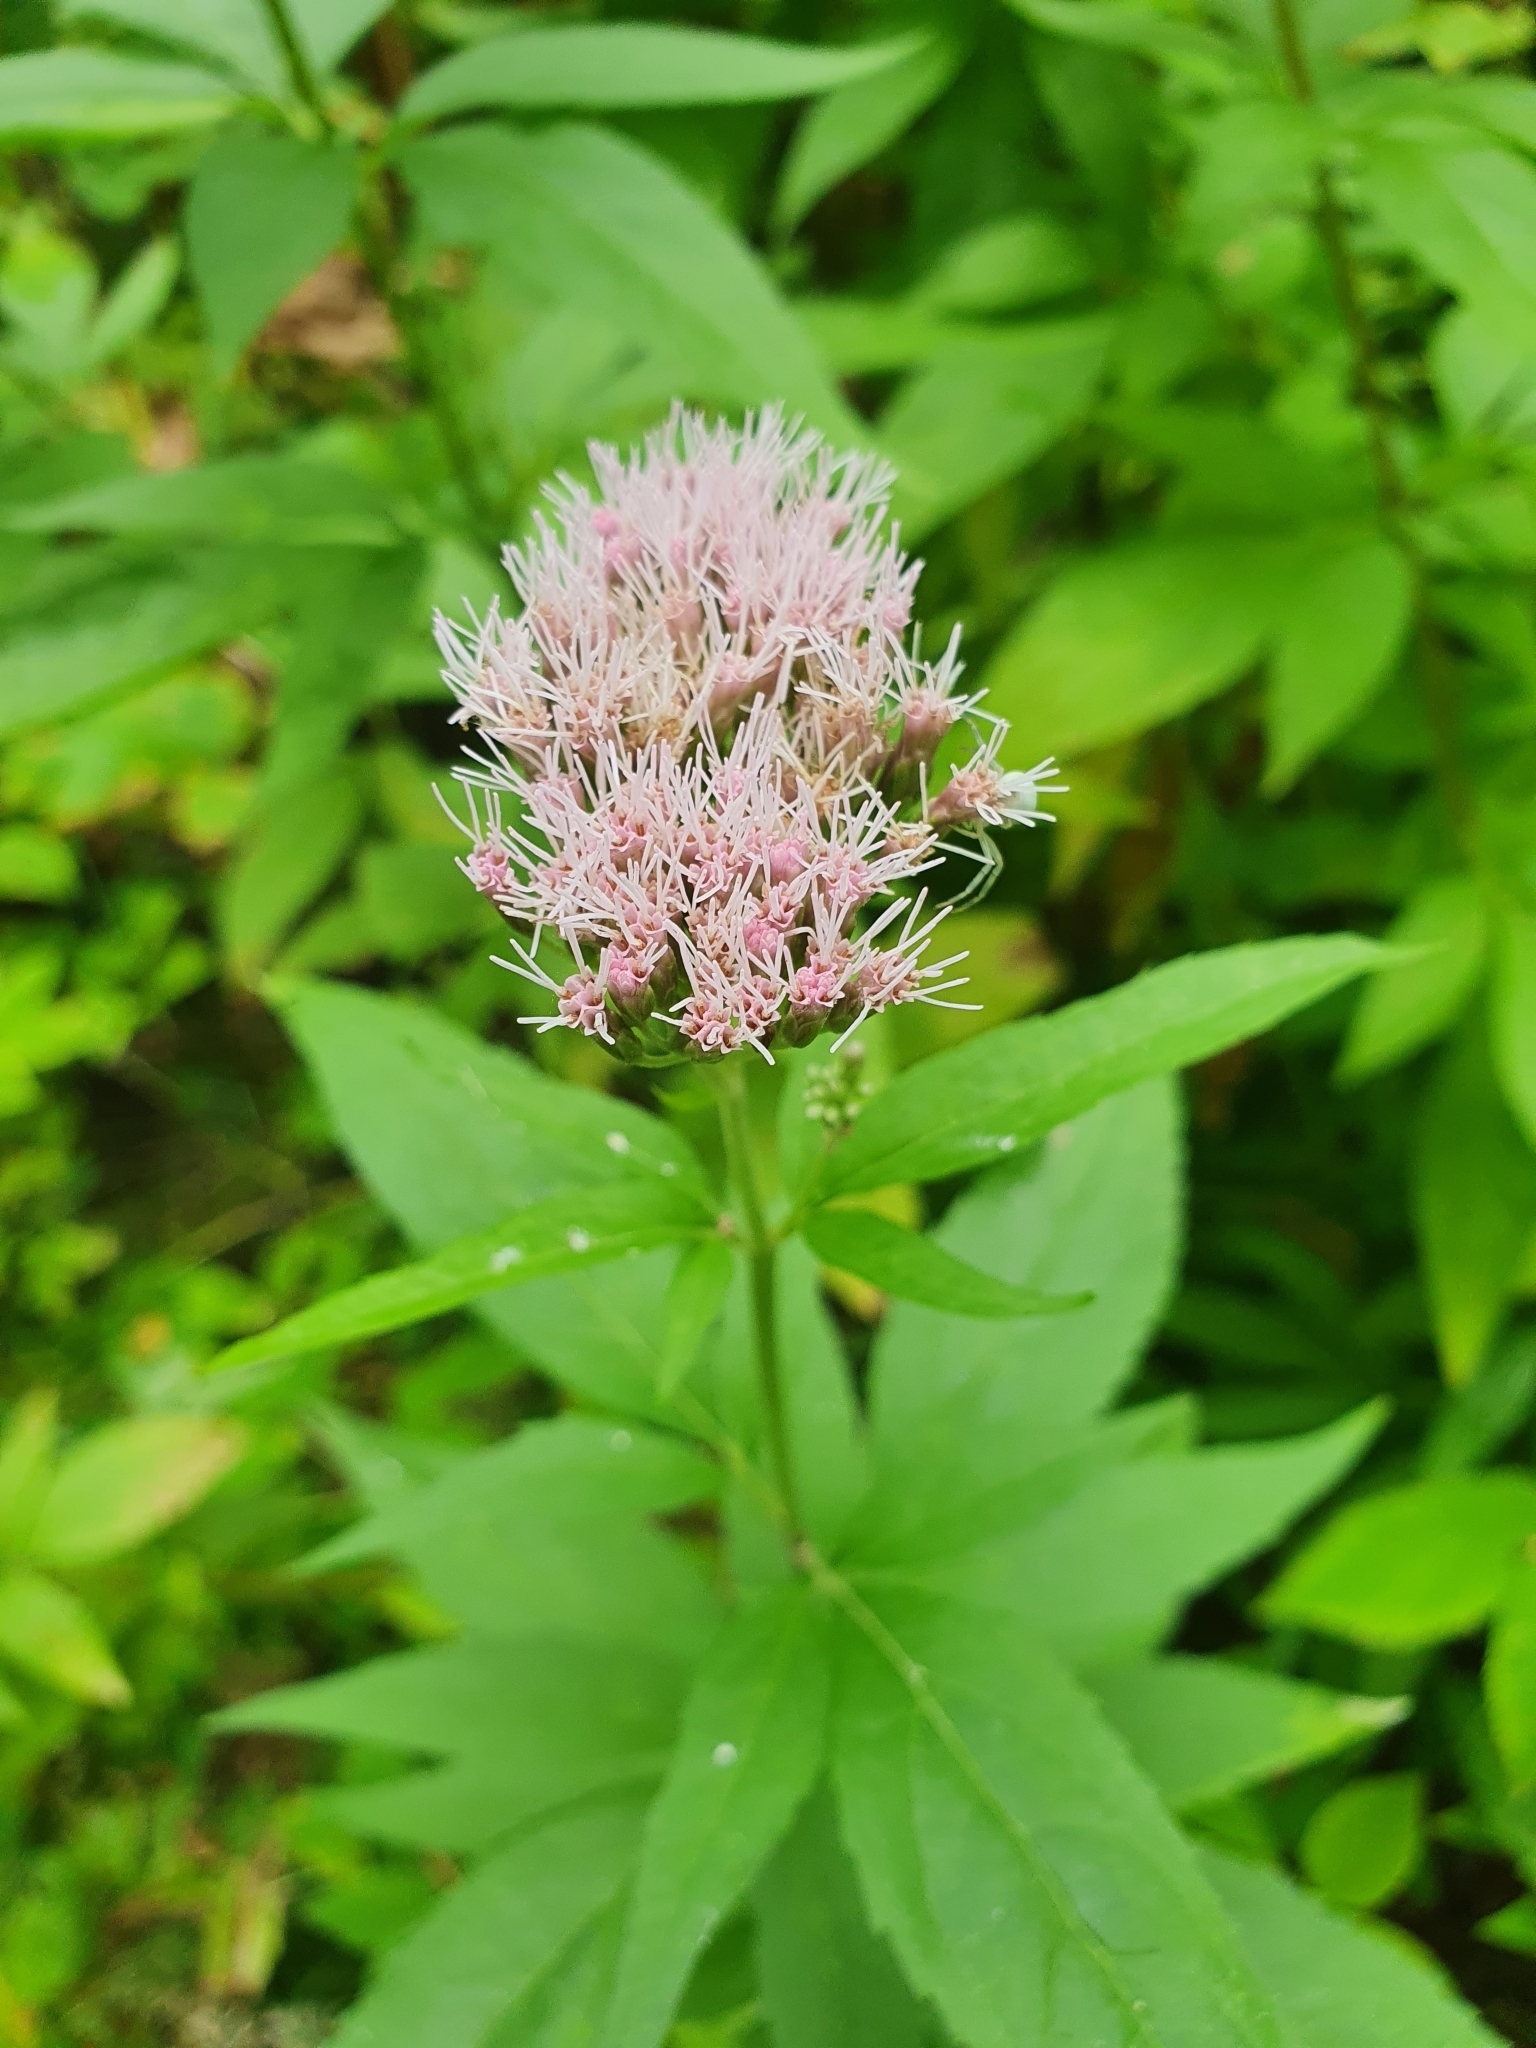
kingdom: Plantae
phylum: Tracheophyta
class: Magnoliopsida
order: Asterales
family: Asteraceae
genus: Eupatorium
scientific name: Eupatorium cannabinum
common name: Hemp-agrimony
